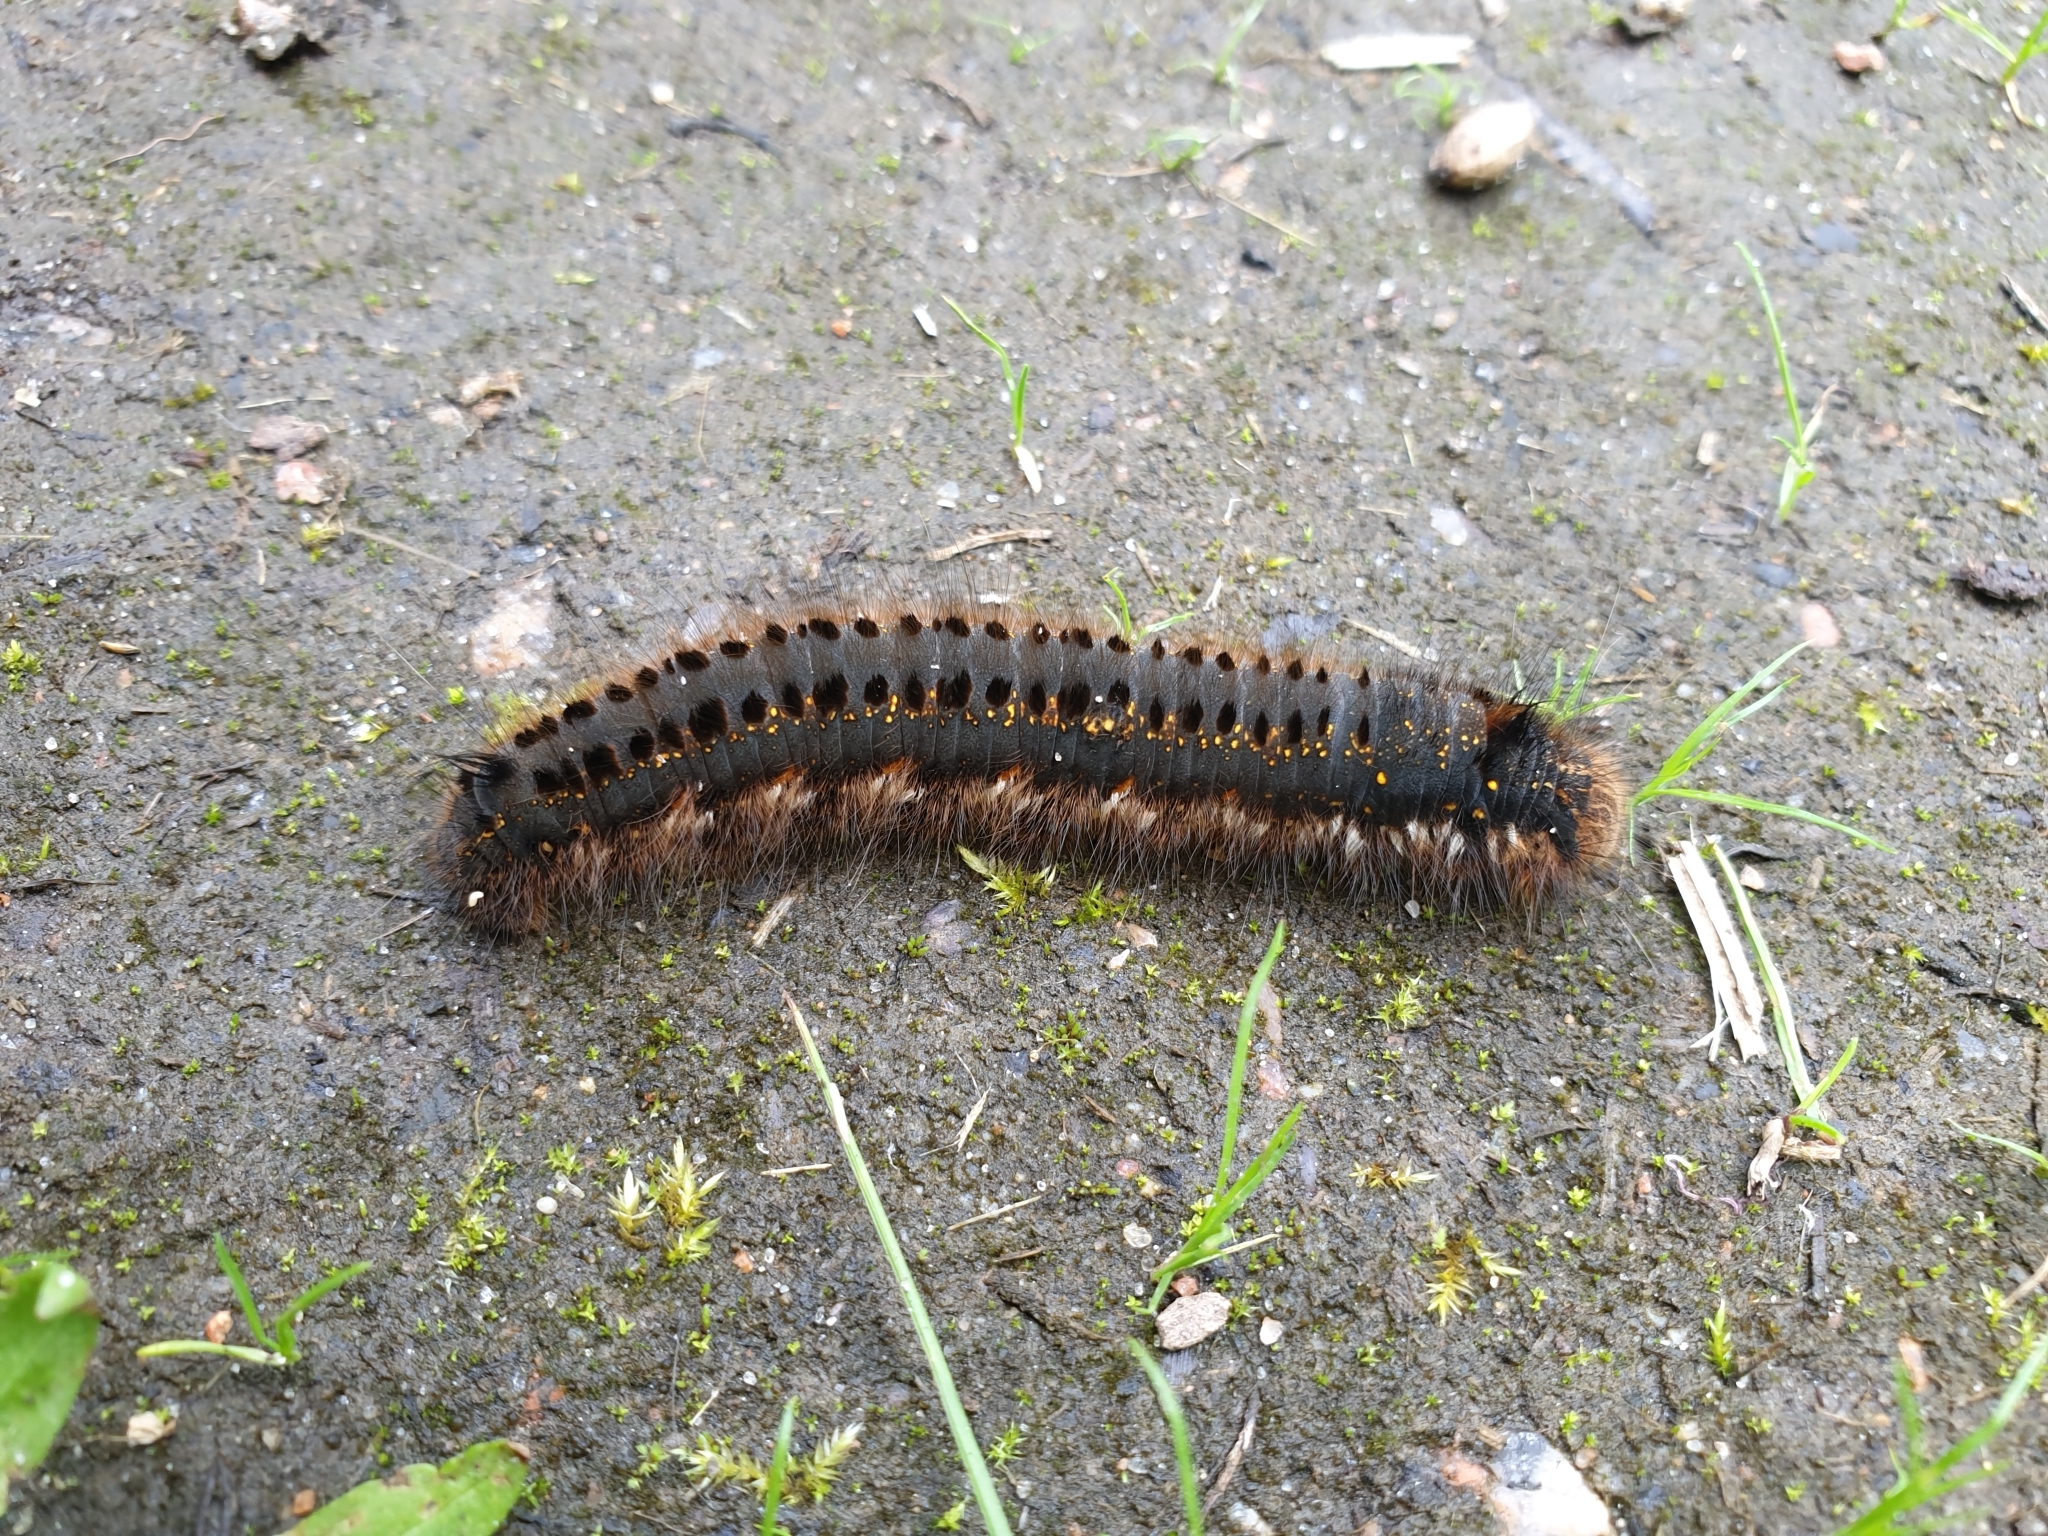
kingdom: Animalia
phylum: Arthropoda
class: Insecta
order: Lepidoptera
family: Lasiocampidae
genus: Euthrix
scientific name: Euthrix potatoria
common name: Drinker
